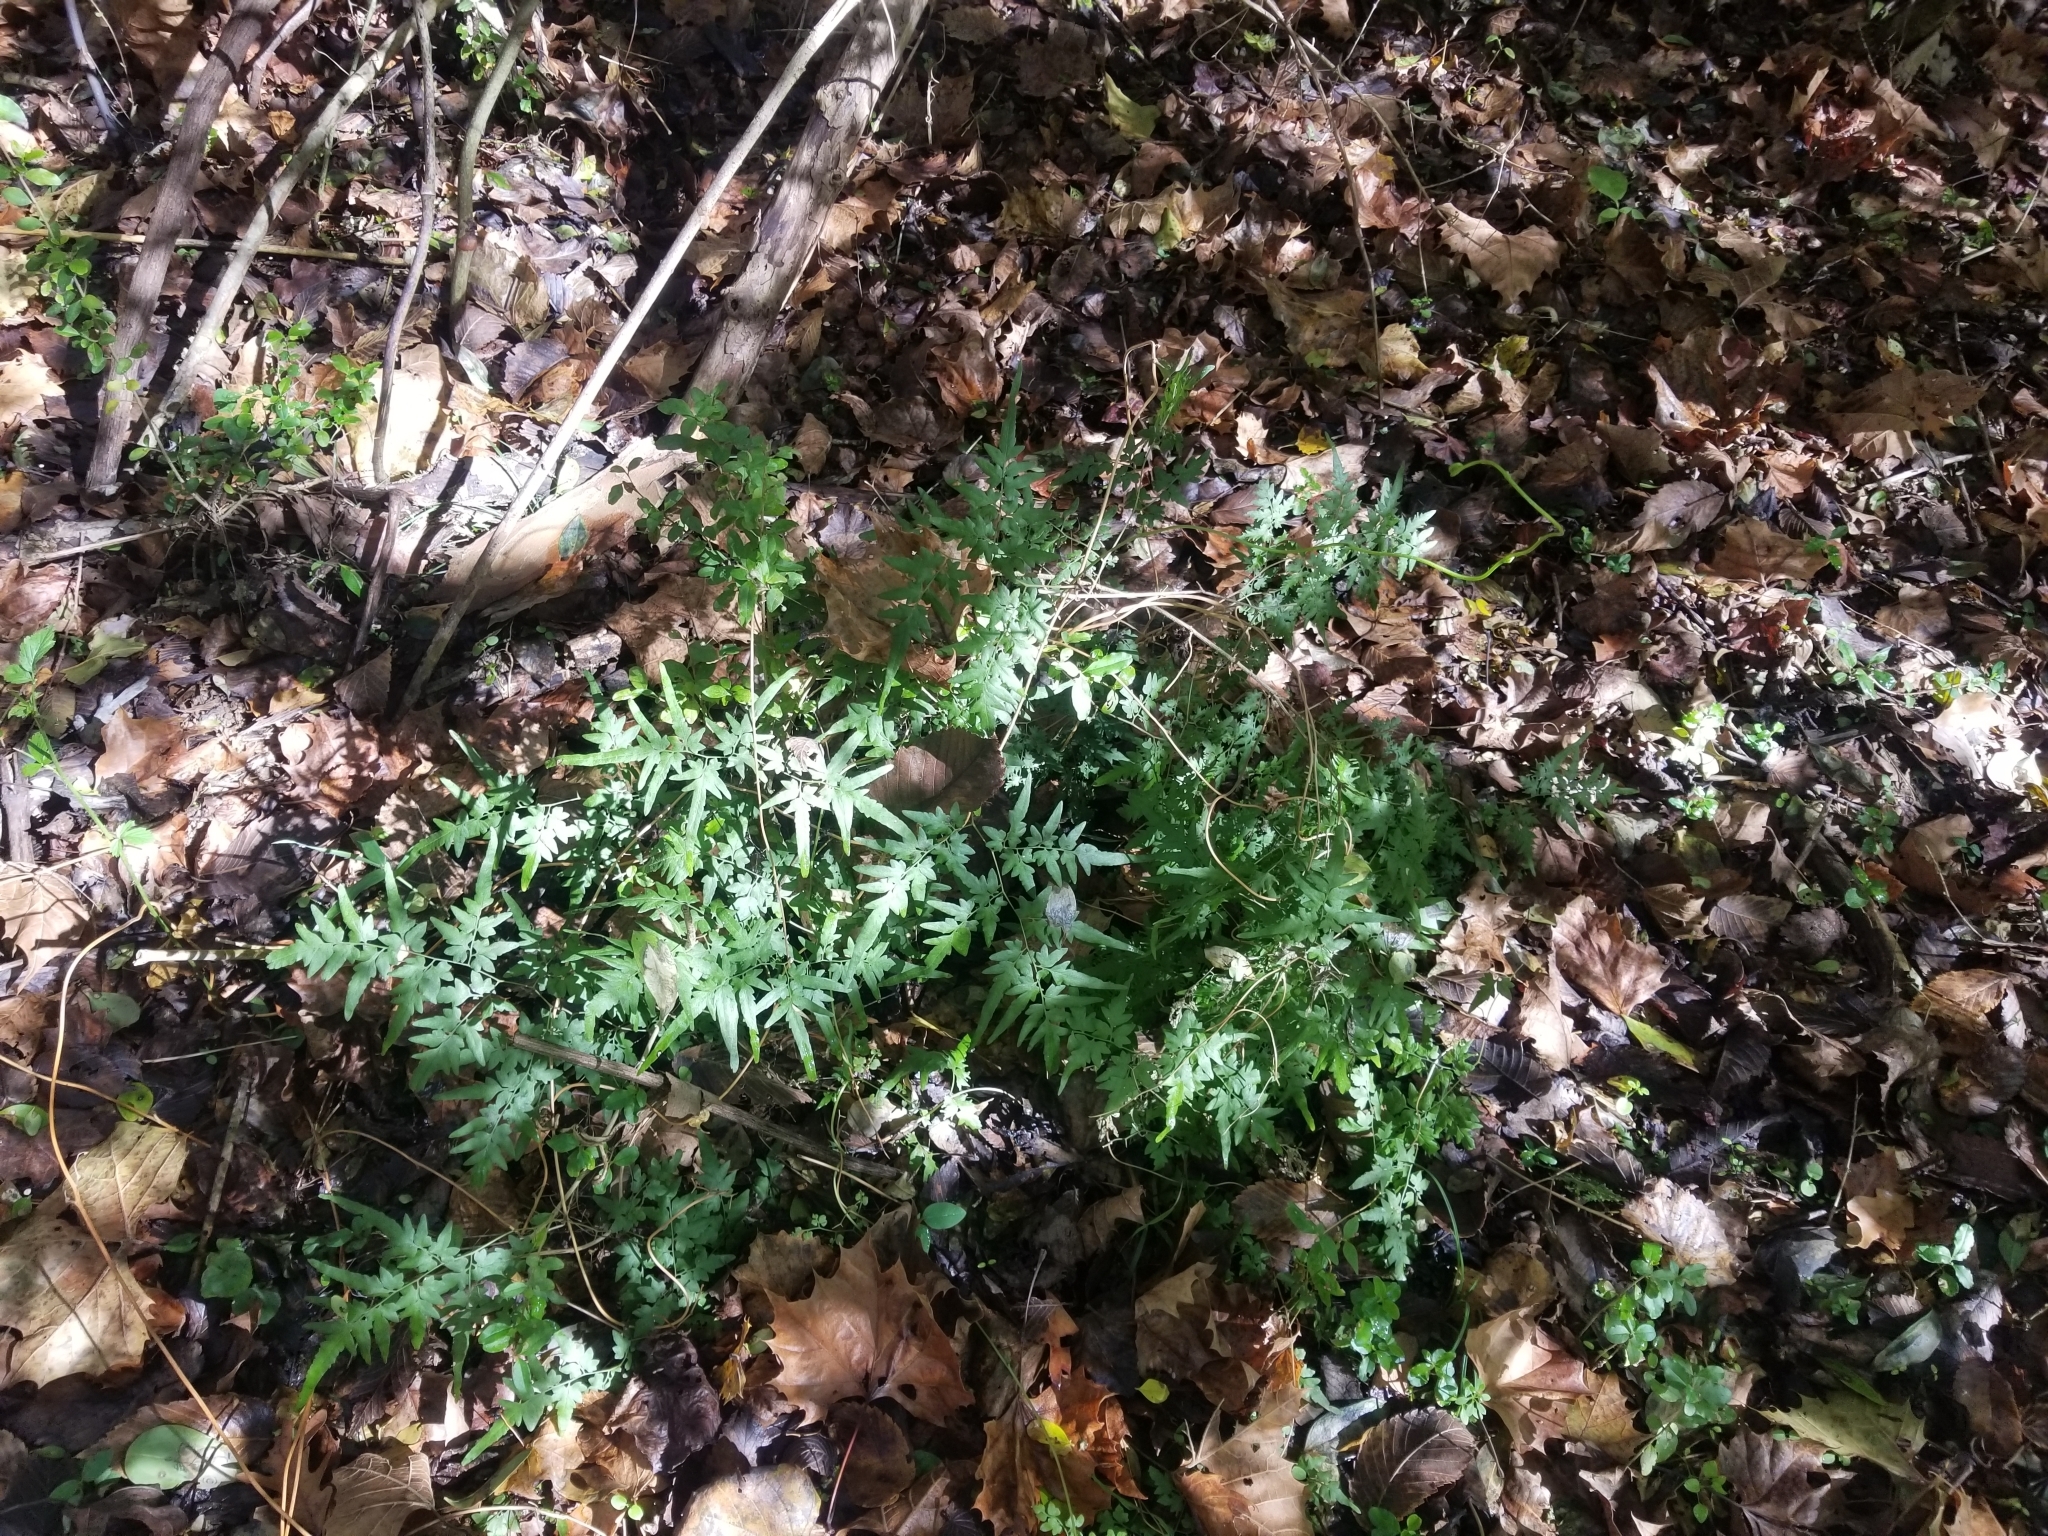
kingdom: Plantae
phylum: Tracheophyta
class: Polypodiopsida
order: Schizaeales
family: Lygodiaceae
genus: Lygodium
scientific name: Lygodium japonicum
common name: Japanese climbing fern
